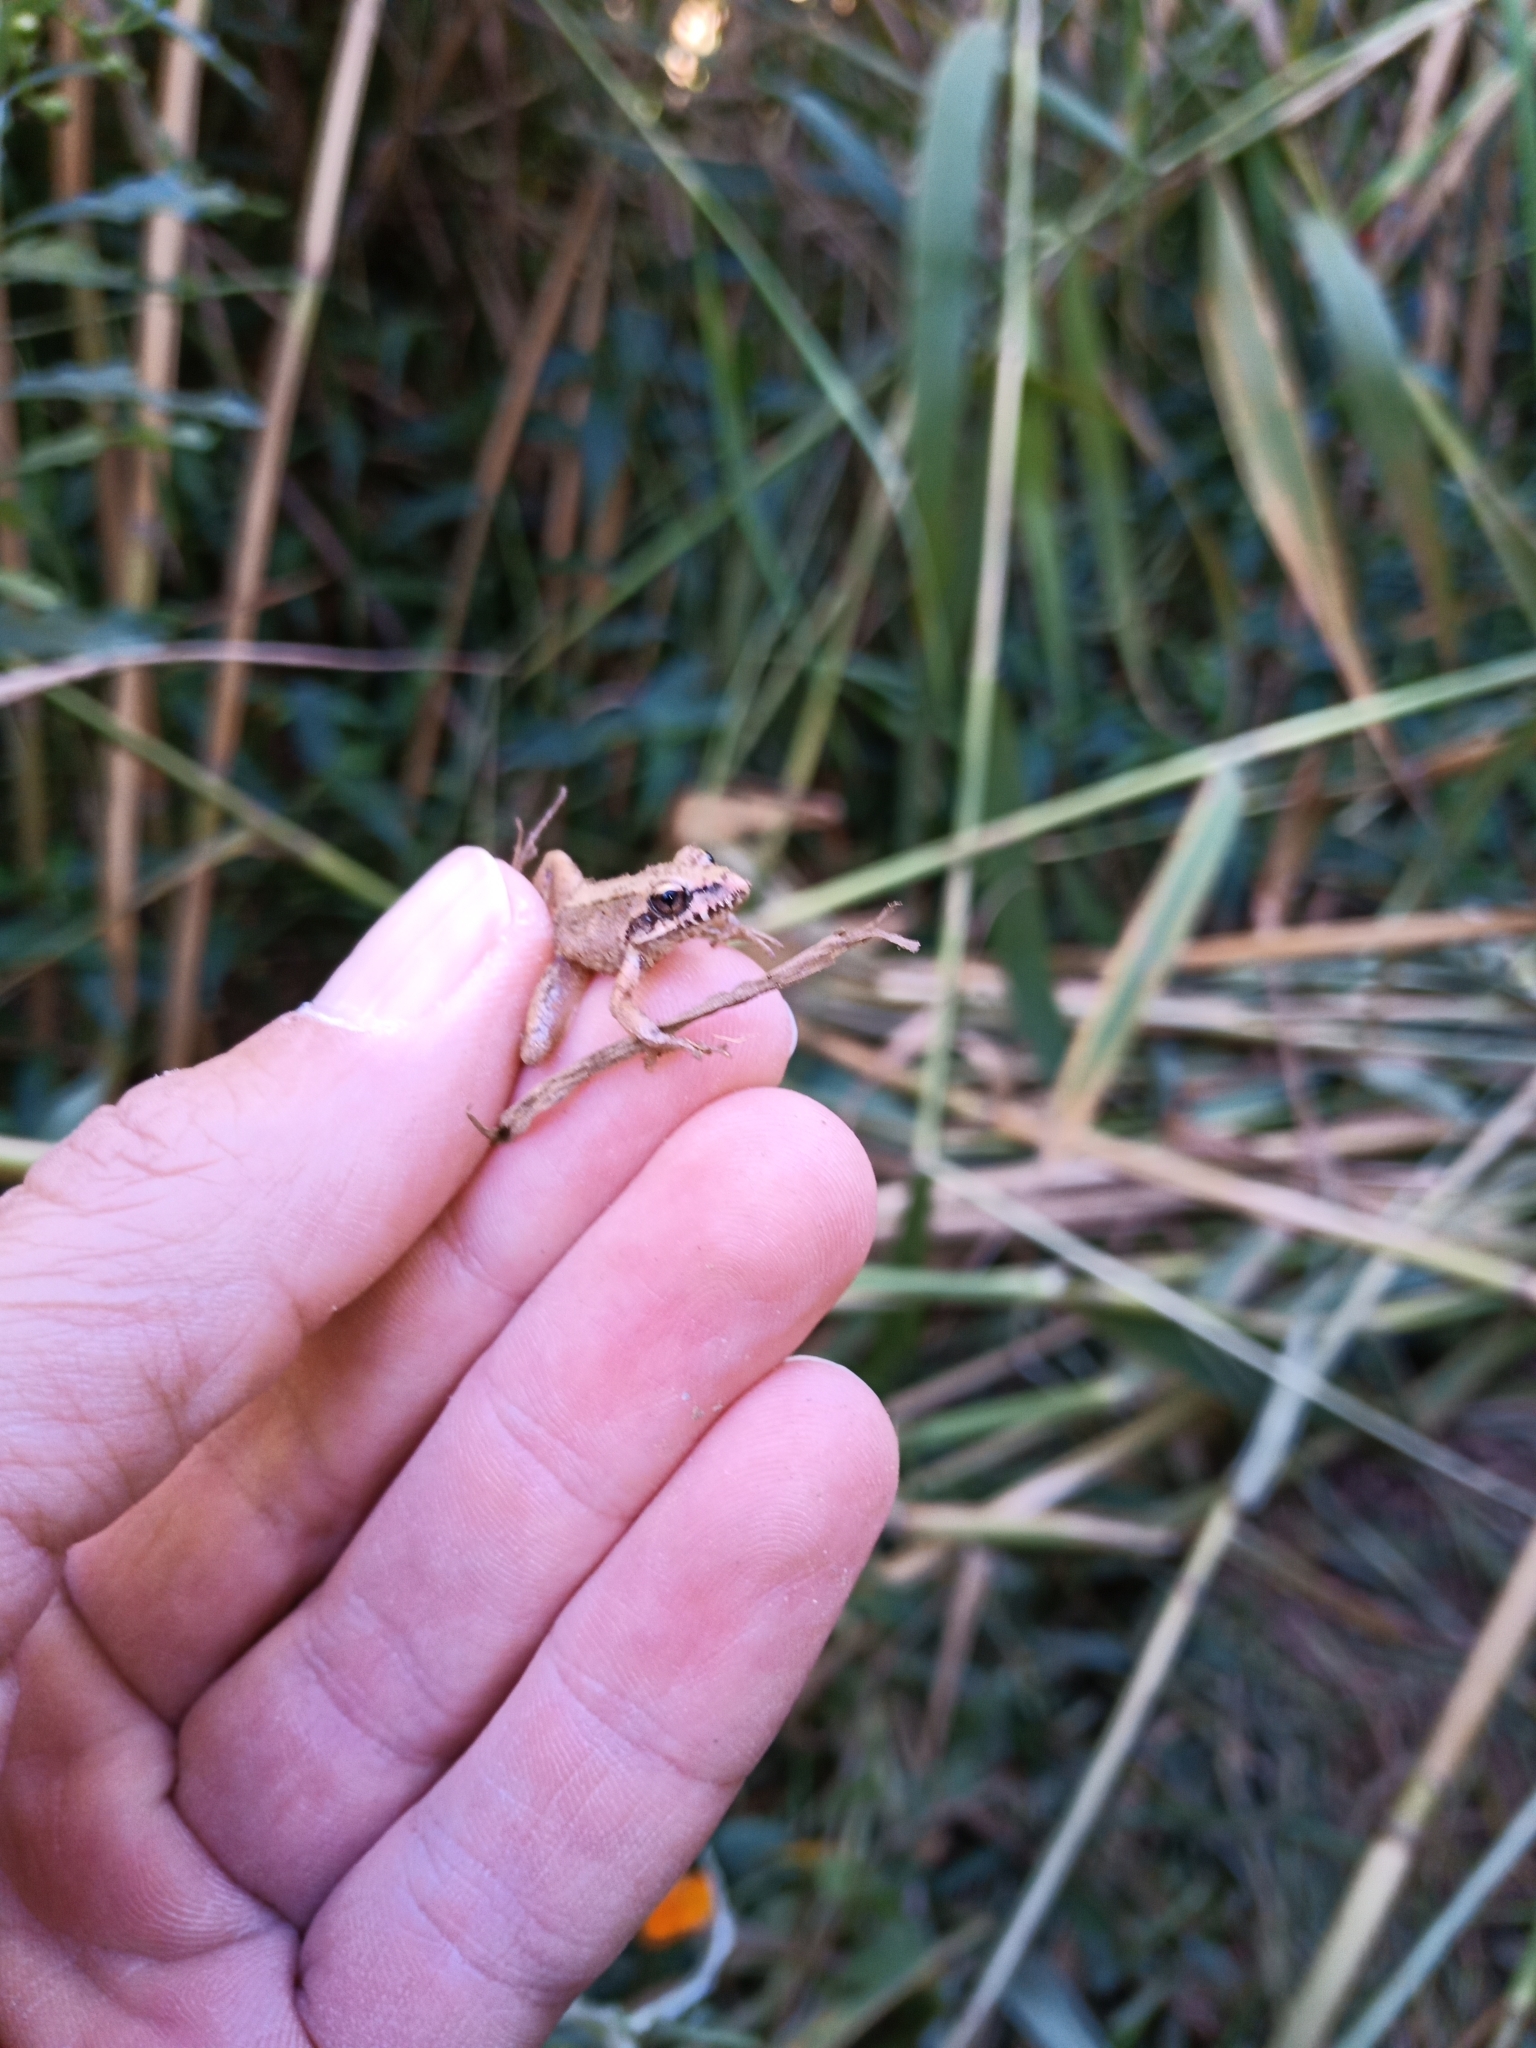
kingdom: Animalia
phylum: Chordata
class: Amphibia
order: Anura
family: Pyxicephalidae
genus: Strongylopus
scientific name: Strongylopus grayii
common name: Gray's stream frog
